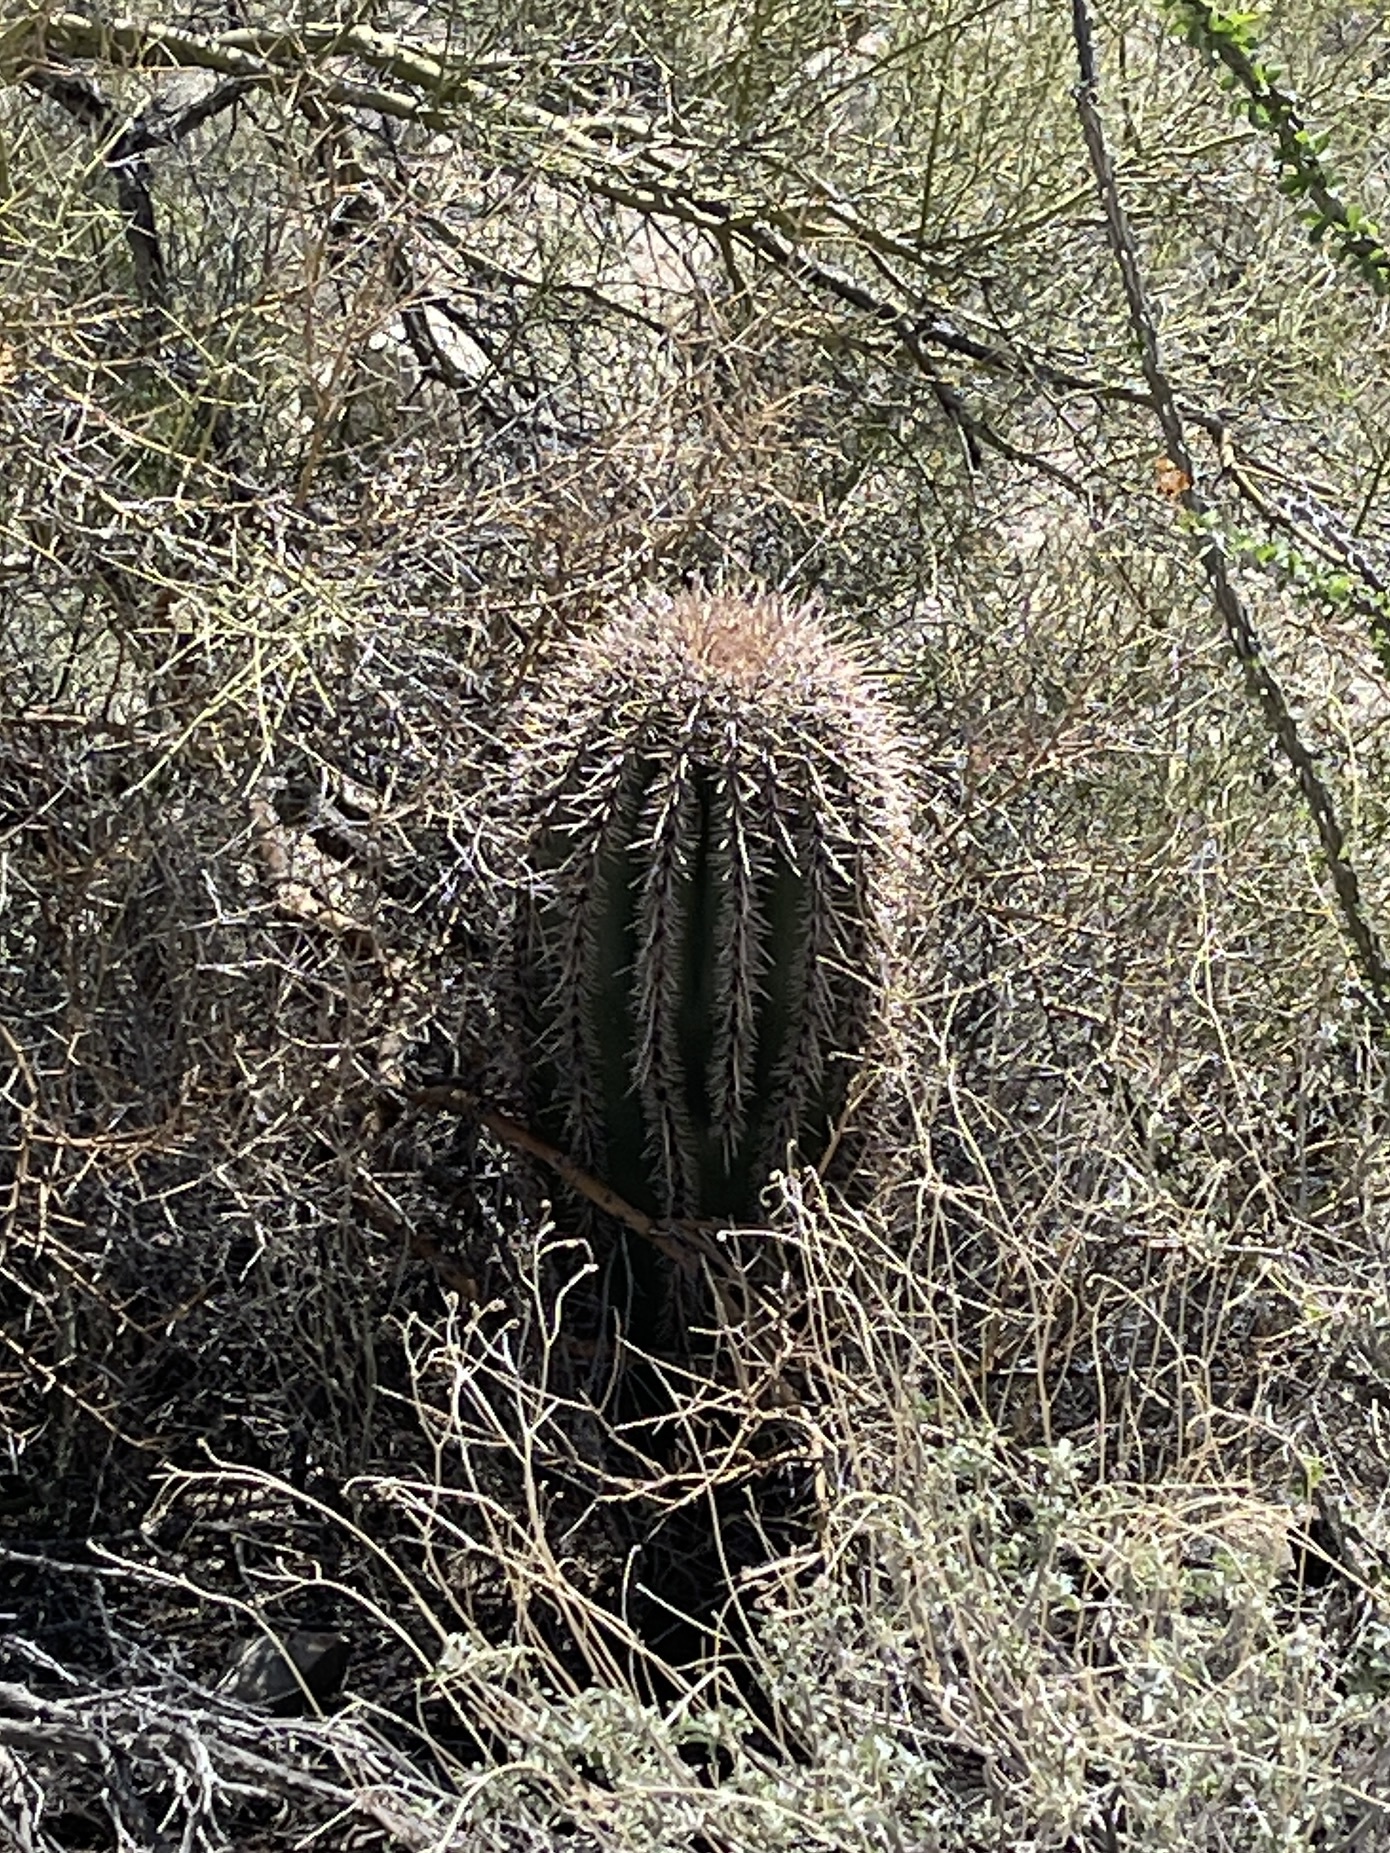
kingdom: Plantae
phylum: Tracheophyta
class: Magnoliopsida
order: Caryophyllales
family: Cactaceae
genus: Carnegiea
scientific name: Carnegiea gigantea
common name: Saguaro
